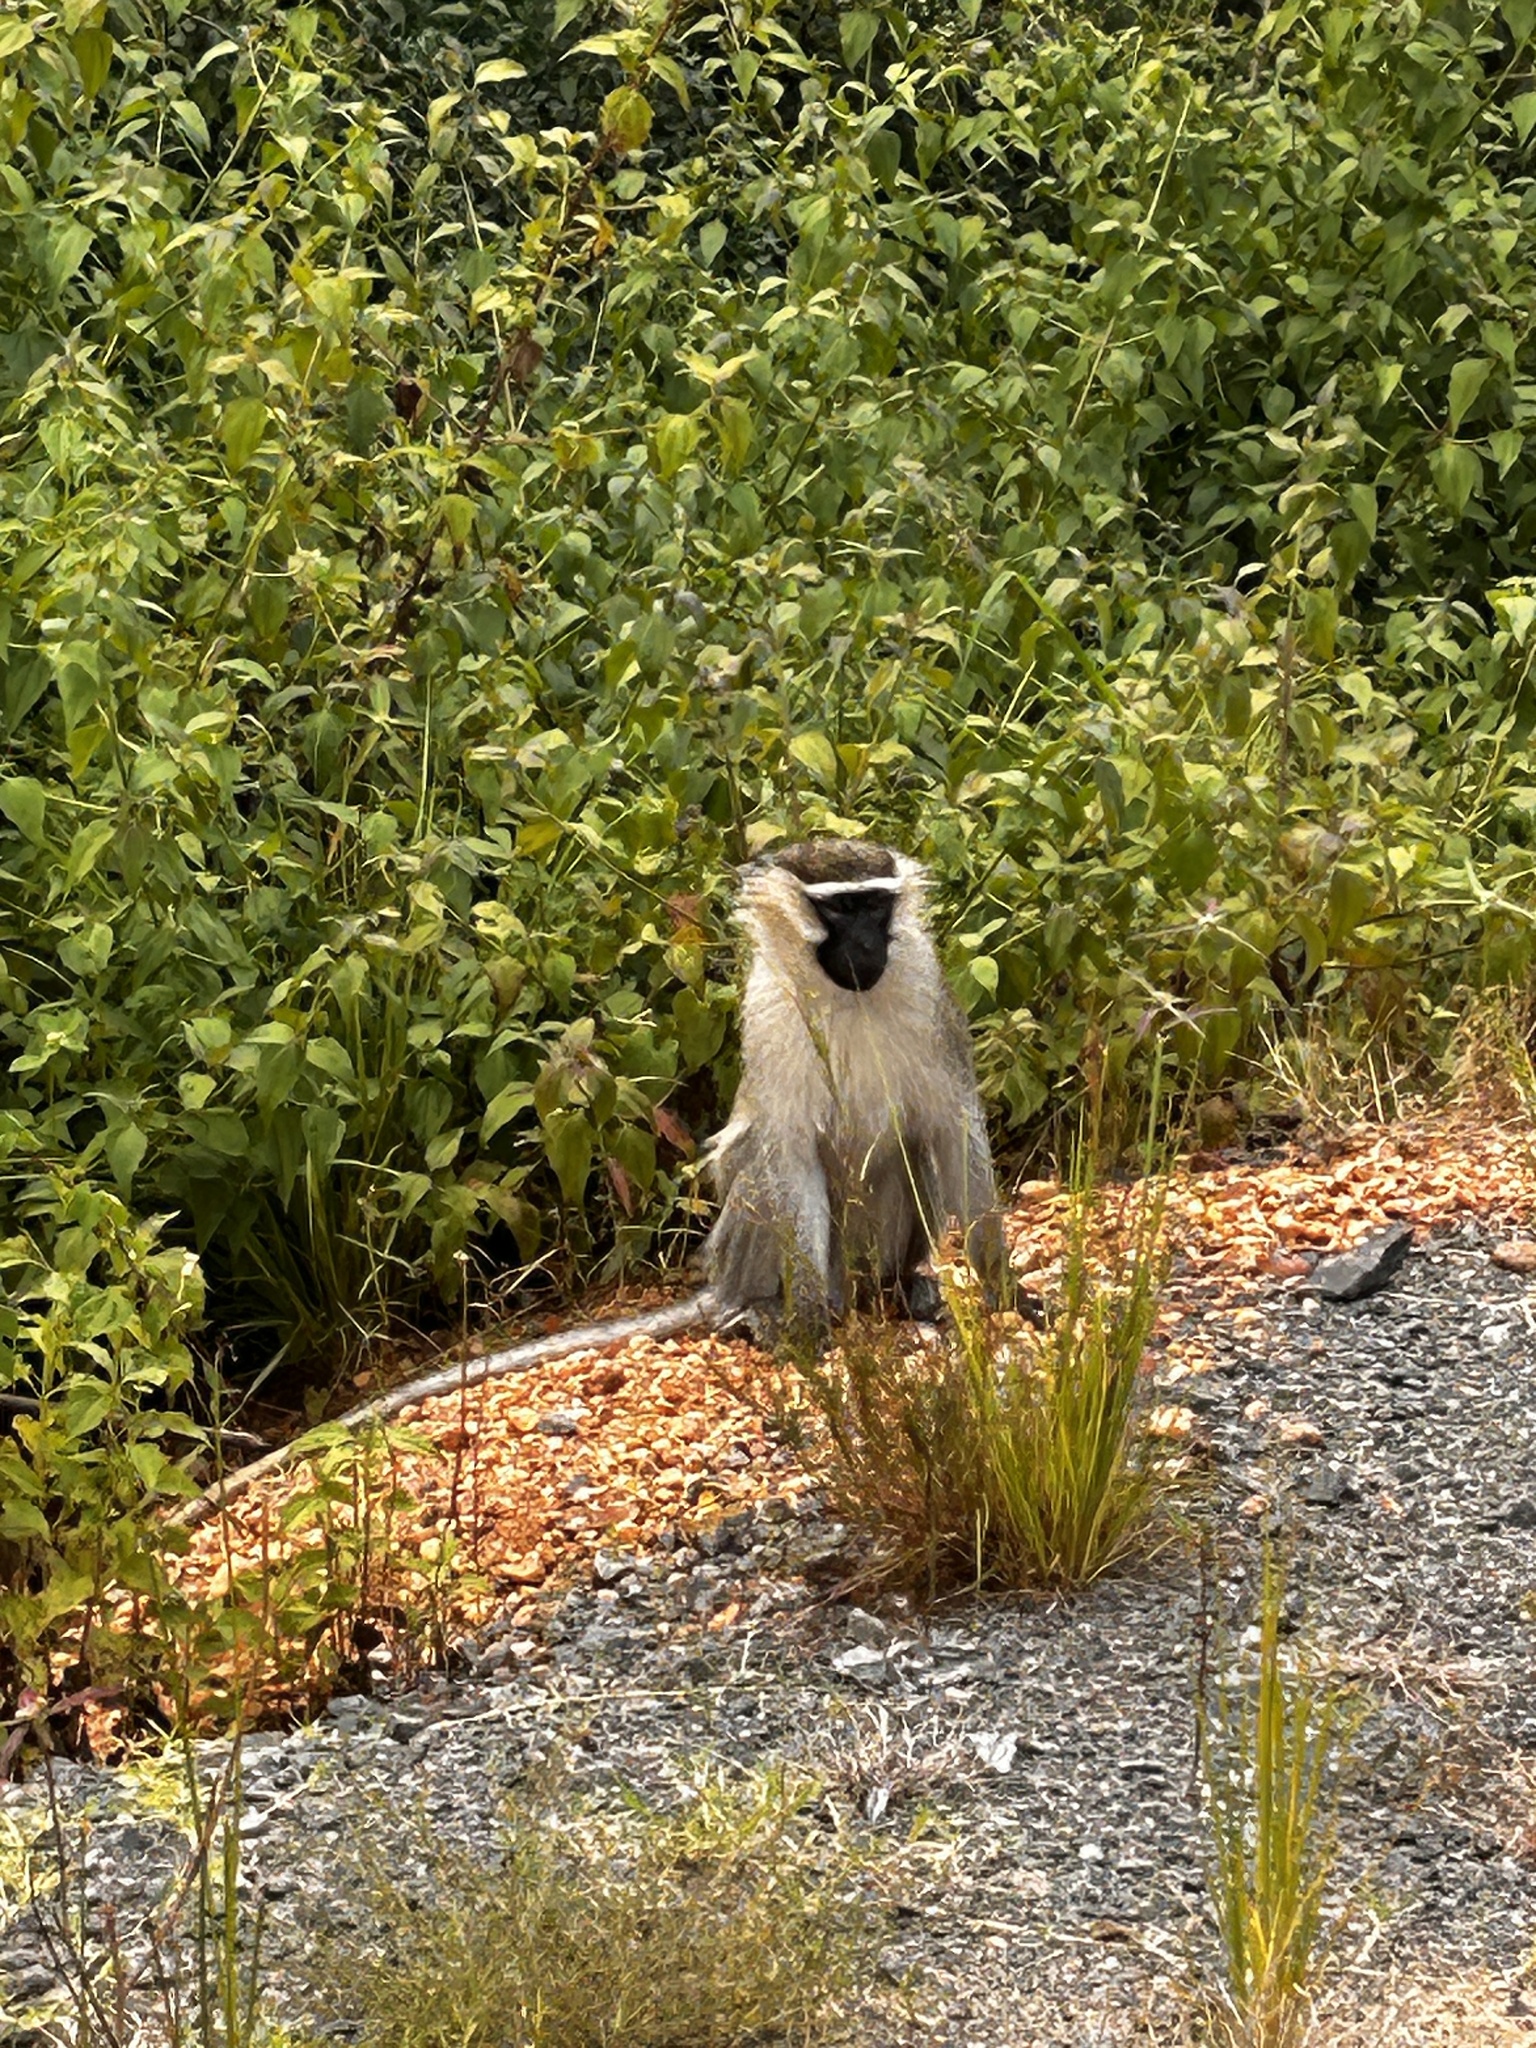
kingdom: Animalia
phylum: Chordata
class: Mammalia
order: Primates
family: Cercopithecidae
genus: Chlorocebus
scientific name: Chlorocebus tantalus
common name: Tantalus monkey
